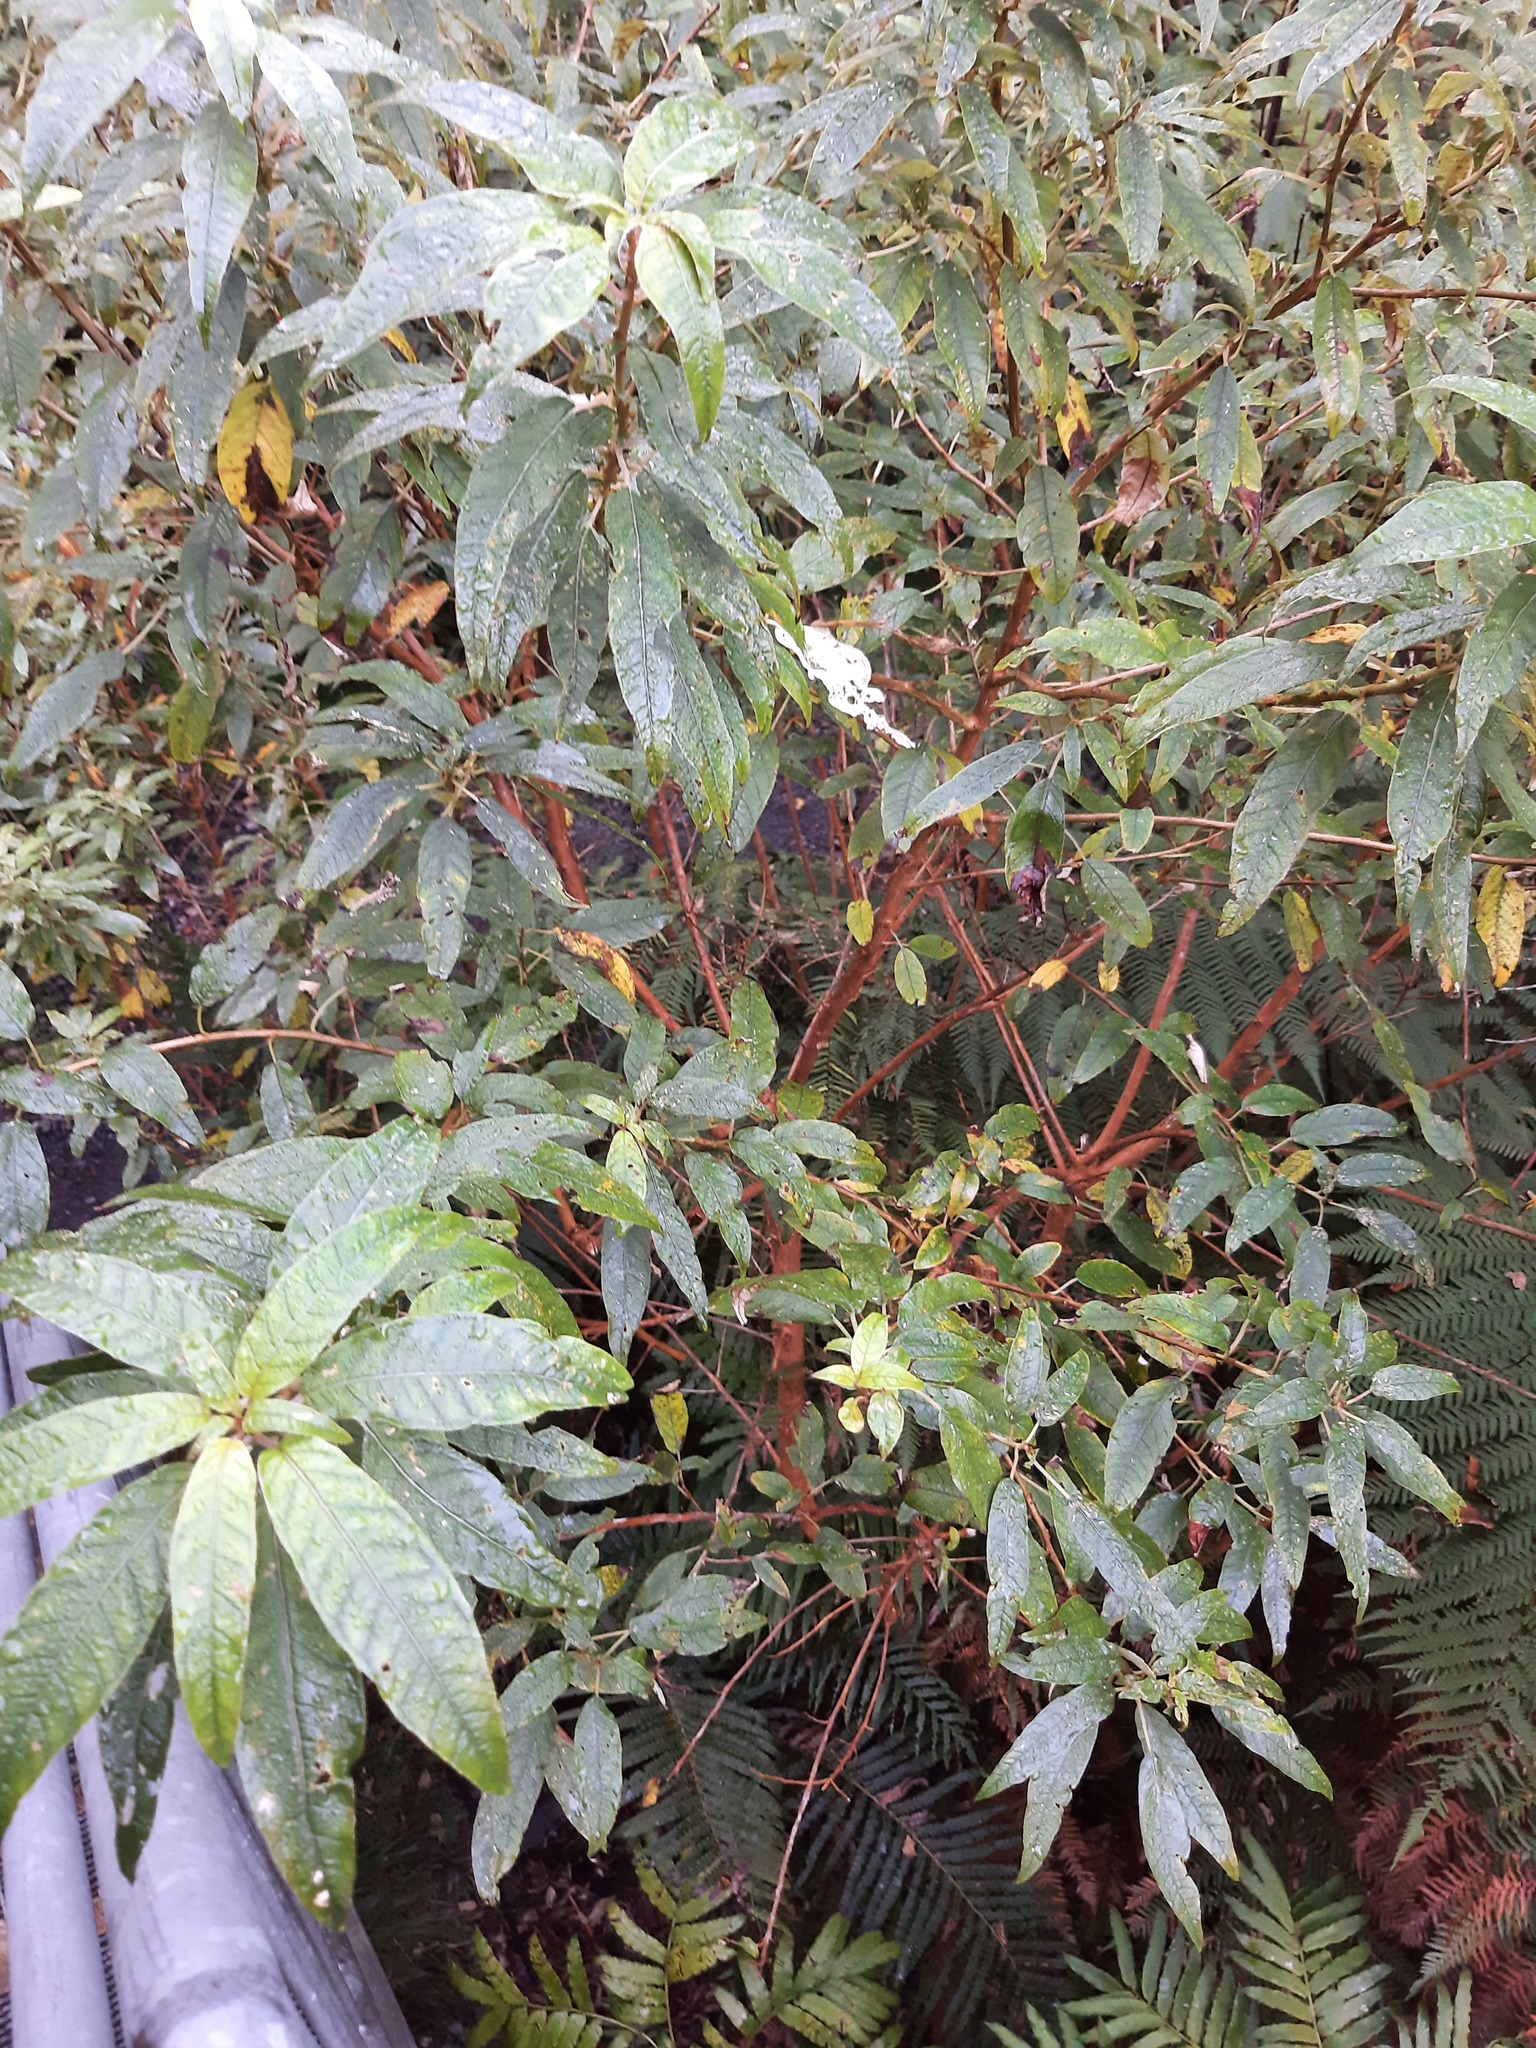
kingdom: Plantae
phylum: Tracheophyta
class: Magnoliopsida
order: Myrtales
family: Onagraceae
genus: Fuchsia
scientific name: Fuchsia excorticata
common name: Tree fuchsia
